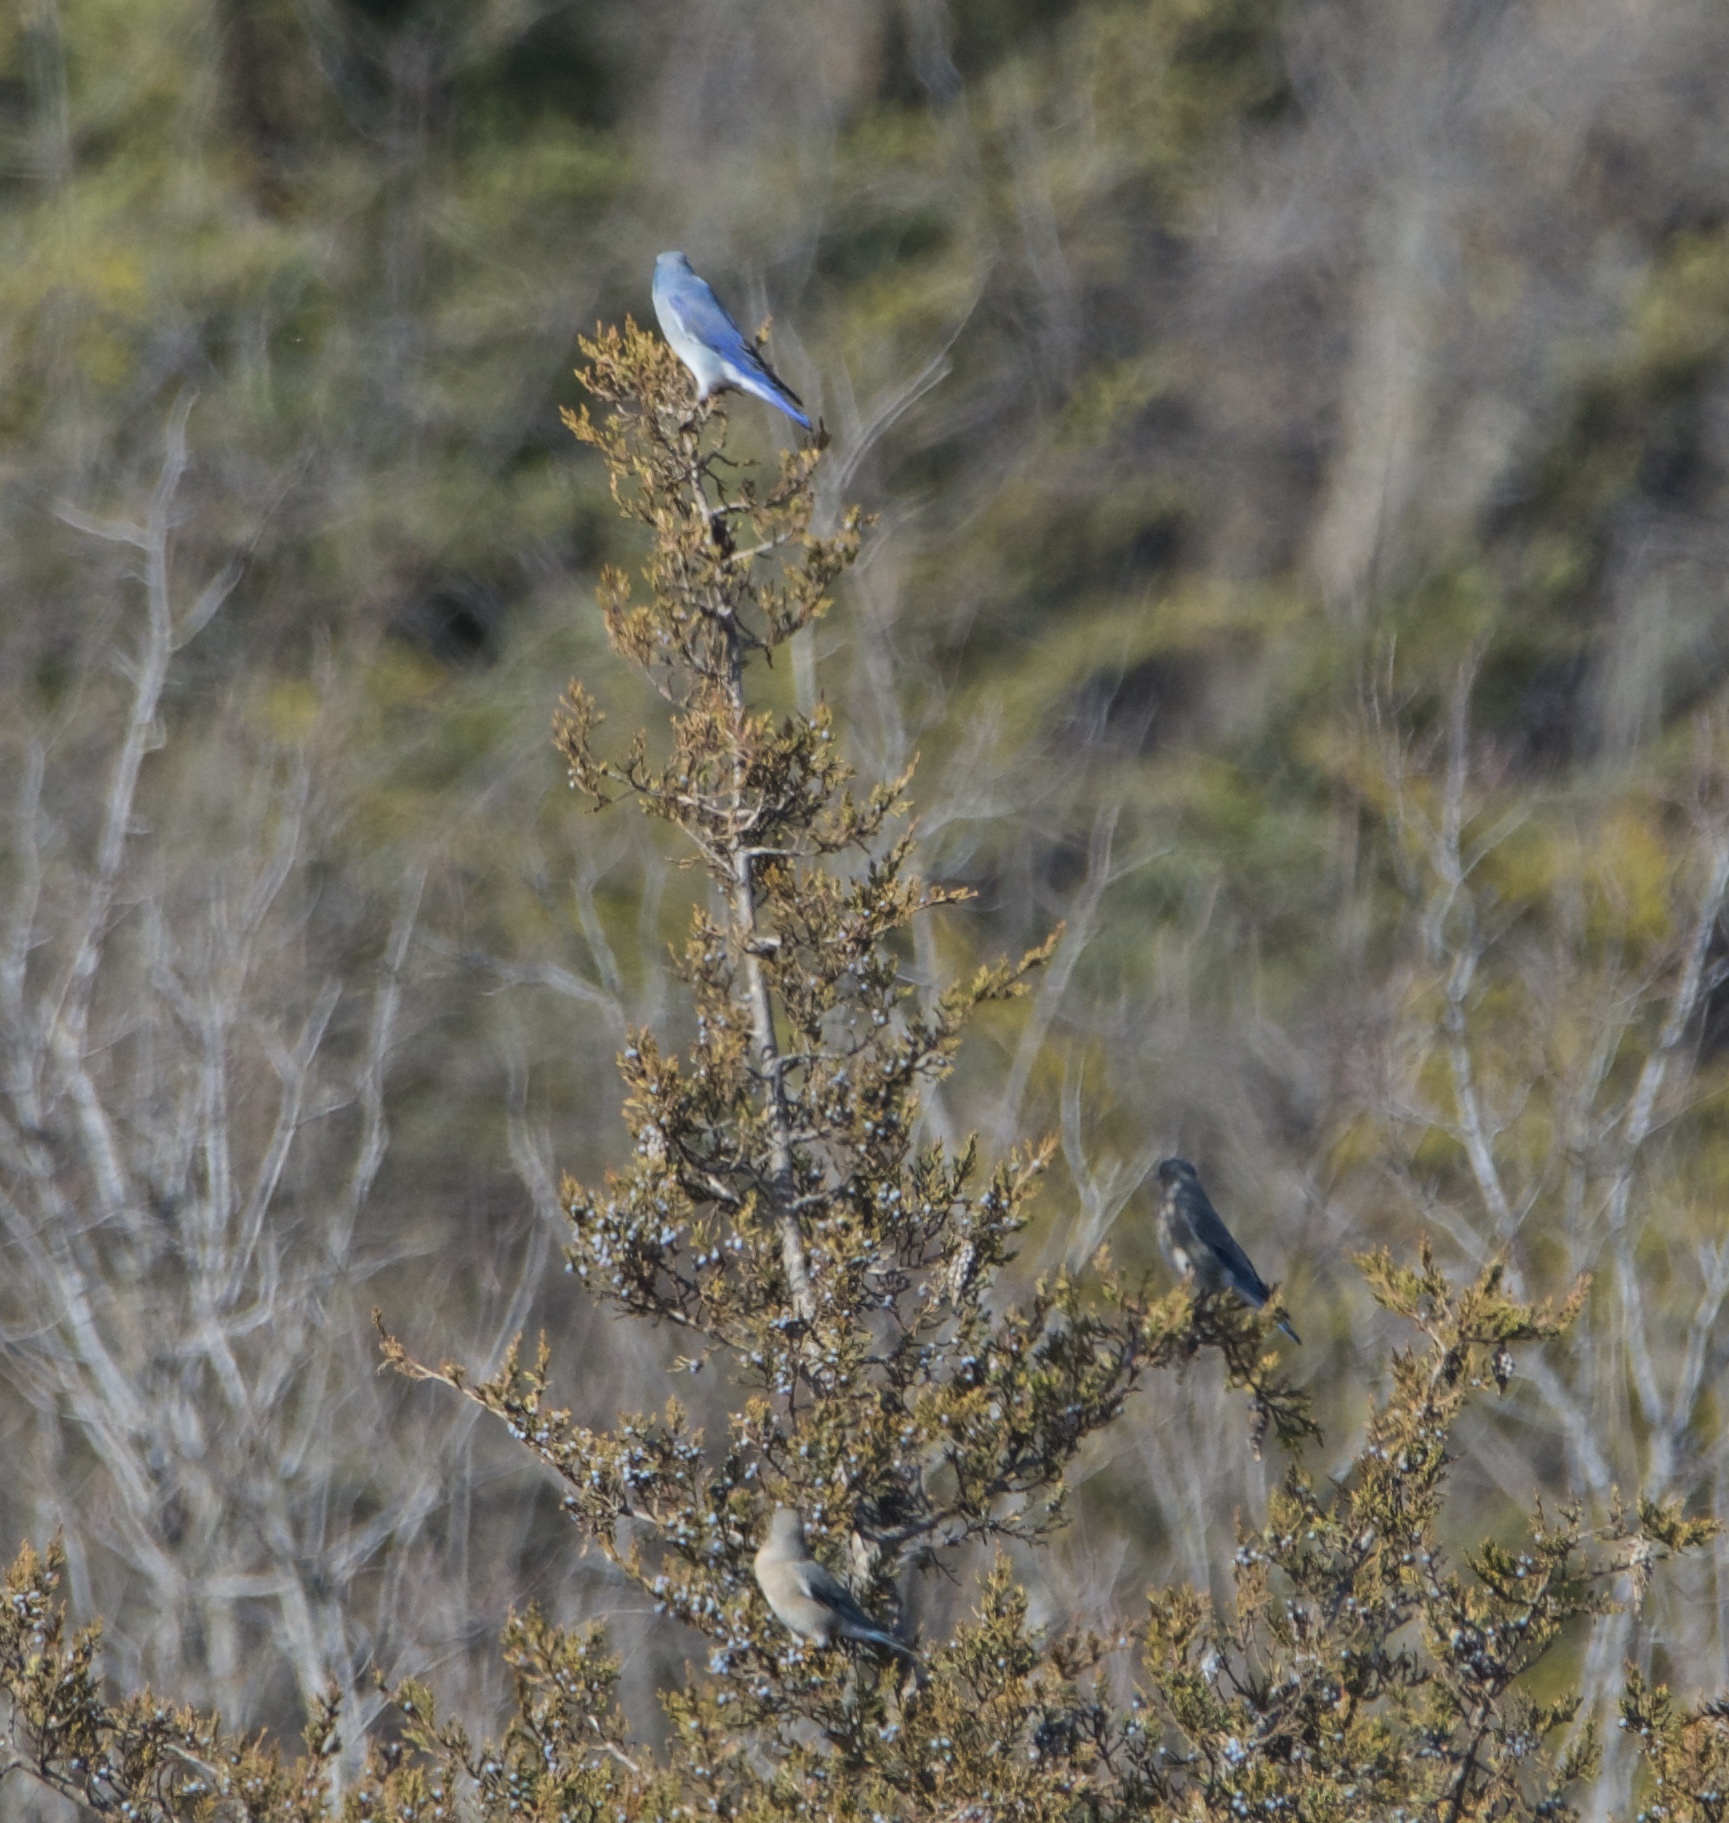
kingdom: Animalia
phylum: Chordata
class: Aves
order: Passeriformes
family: Turdidae
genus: Sialia
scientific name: Sialia currucoides
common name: Mountain bluebird
